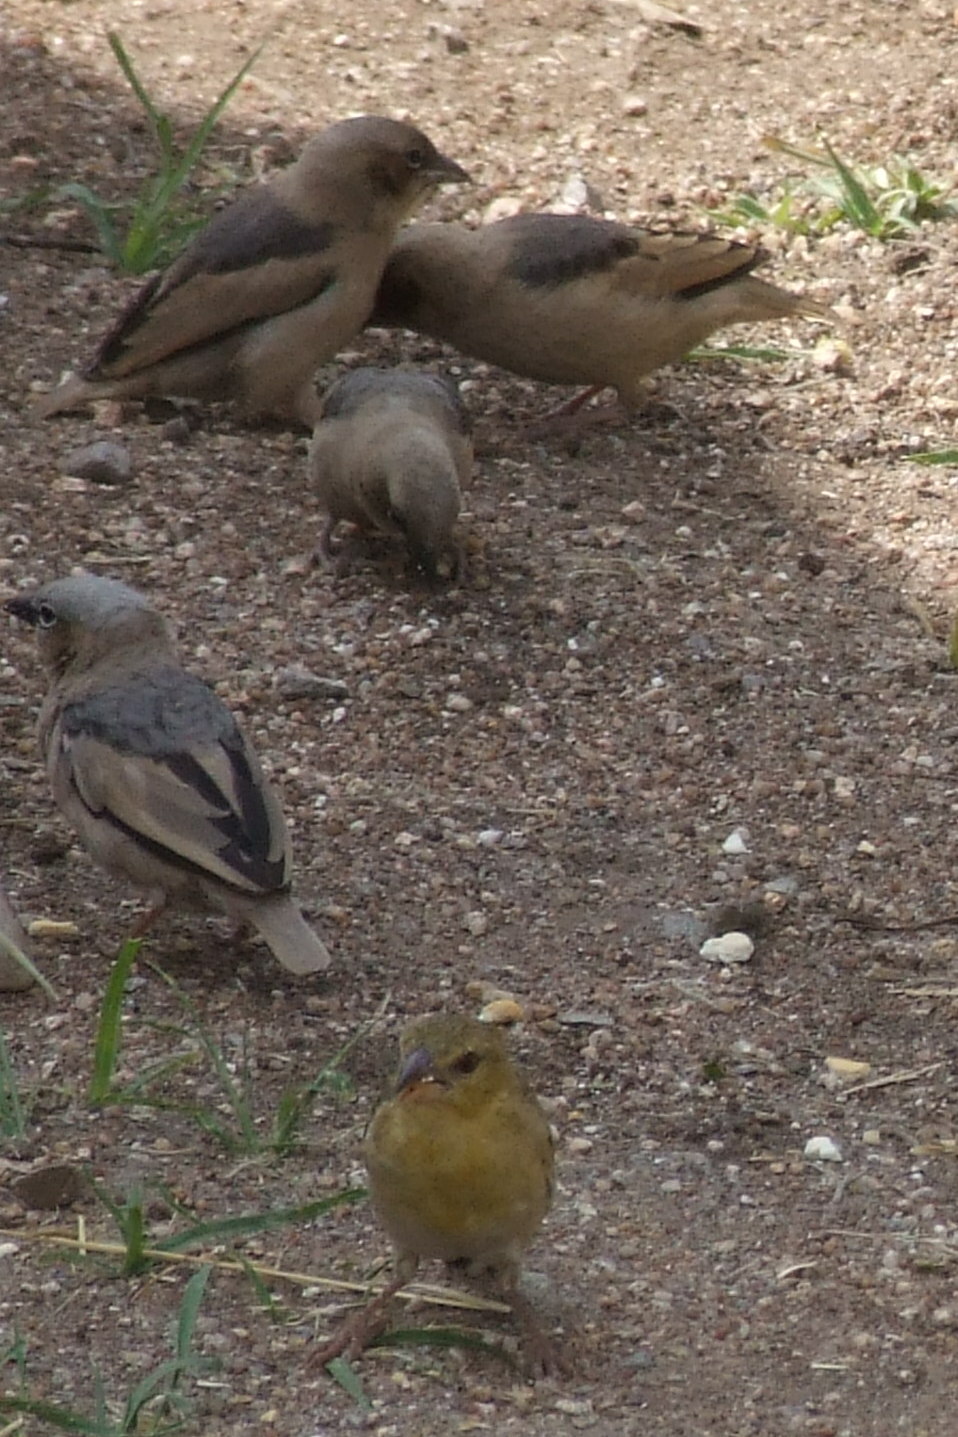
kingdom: Animalia
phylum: Chordata
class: Aves
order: Passeriformes
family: Passeridae
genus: Pseudonigrita
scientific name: Pseudonigrita arnaudi
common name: Grey-capped social weaver
